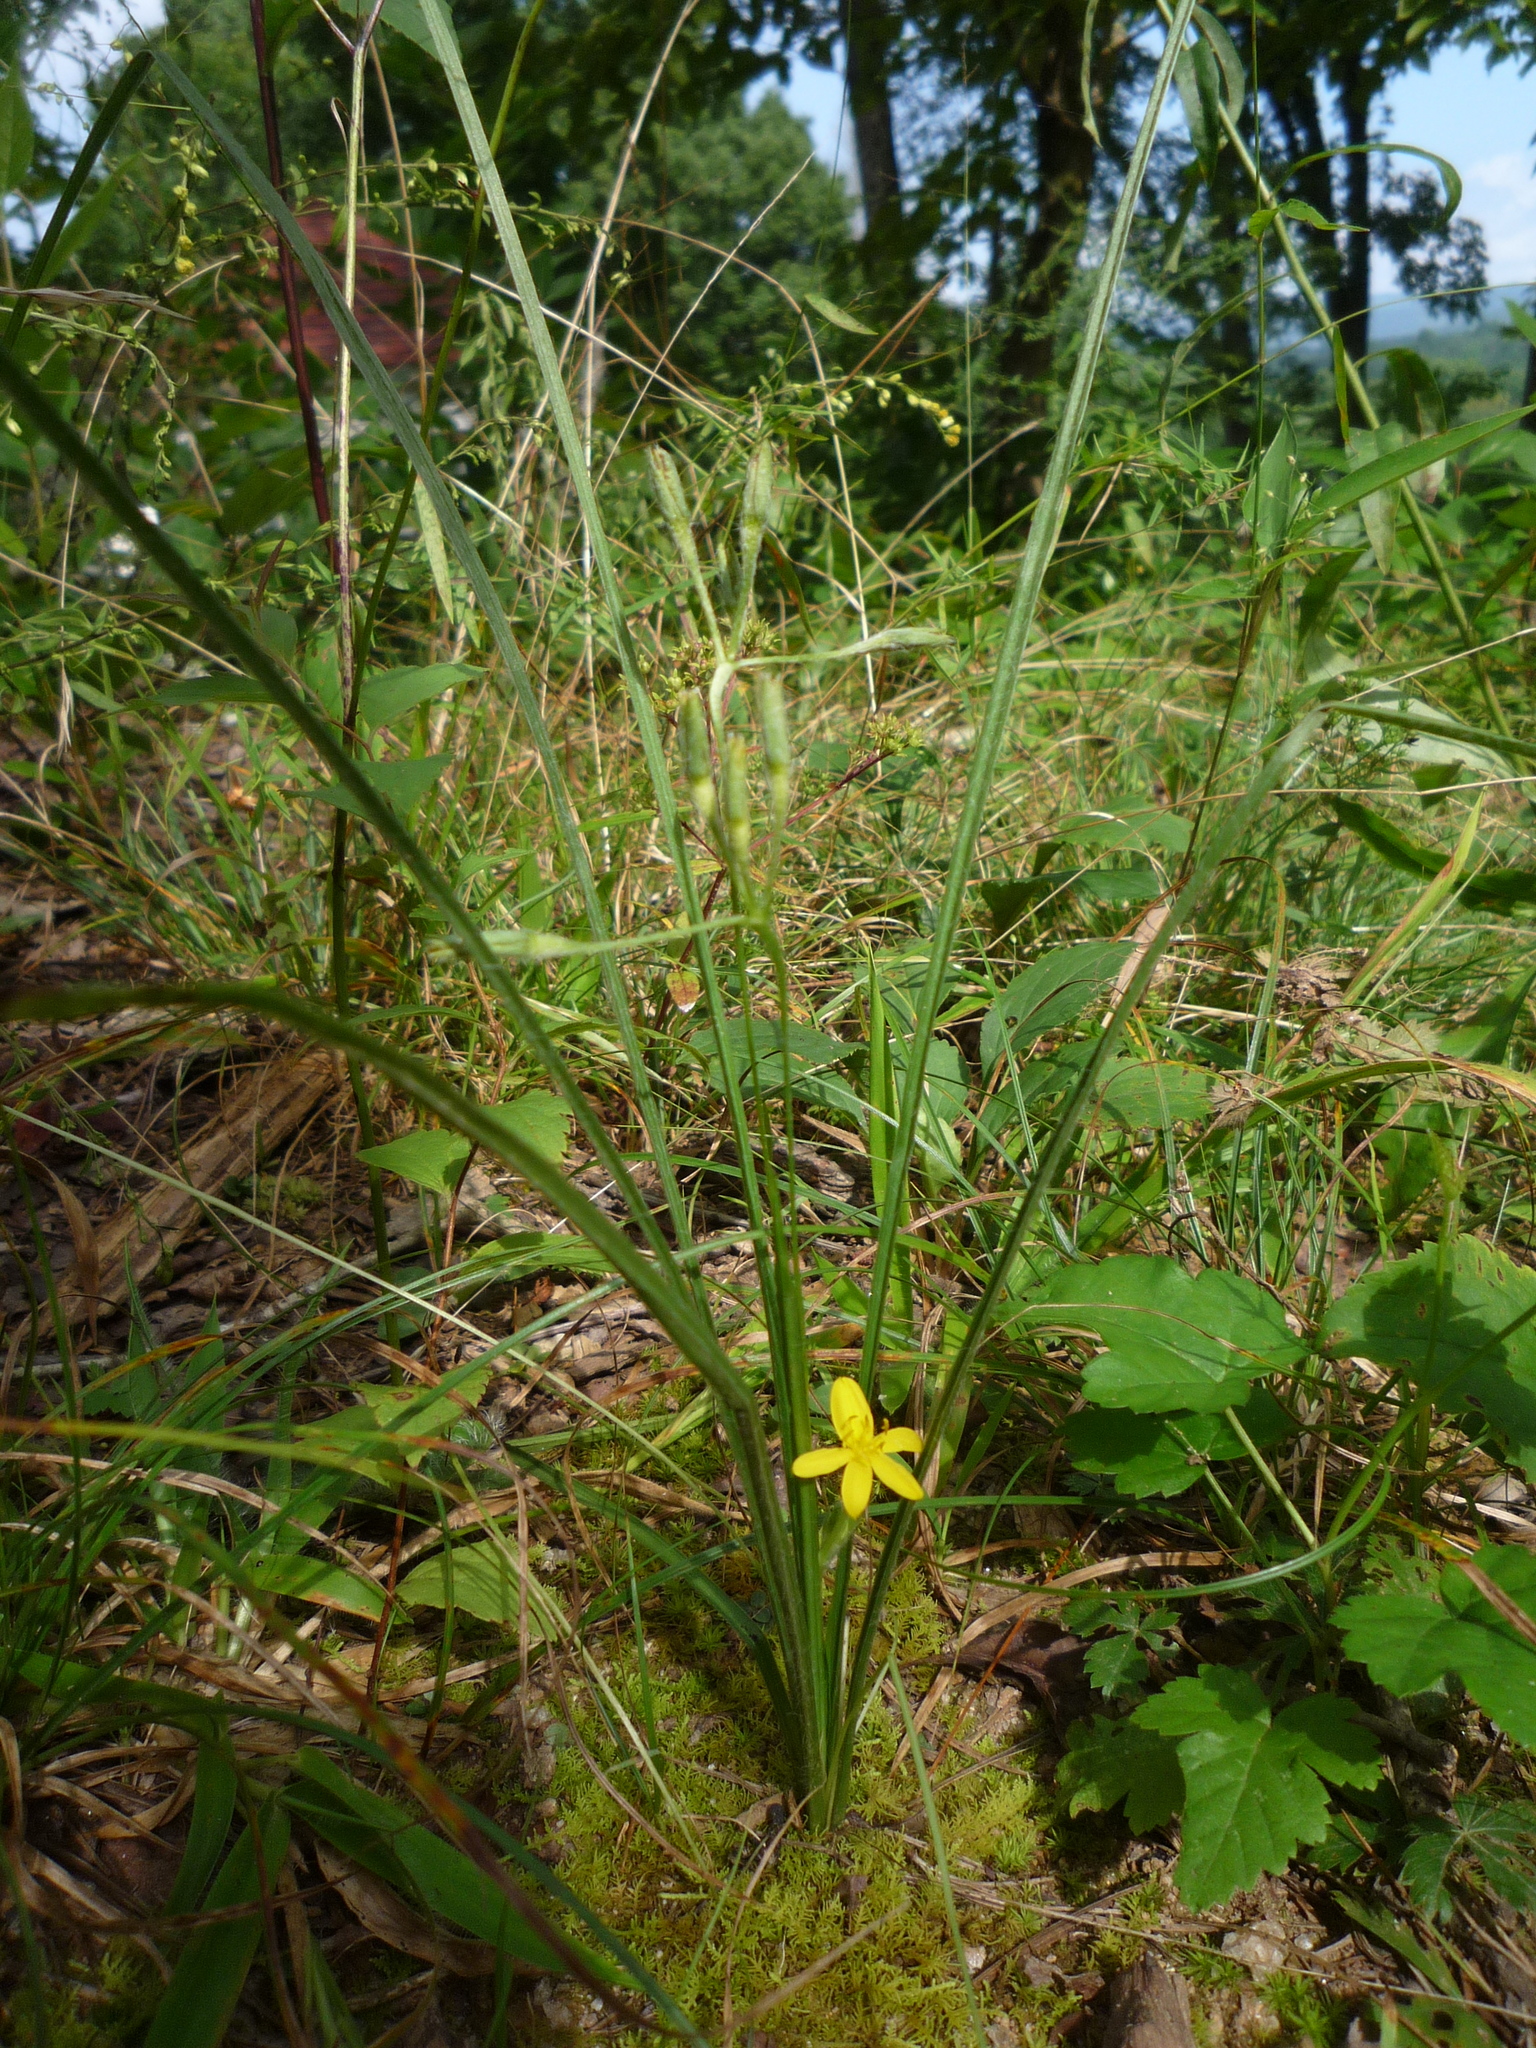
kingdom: Plantae
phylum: Tracheophyta
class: Liliopsida
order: Asparagales
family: Hypoxidaceae
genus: Hypoxis
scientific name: Hypoxis hirsuta
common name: Common goldstar
